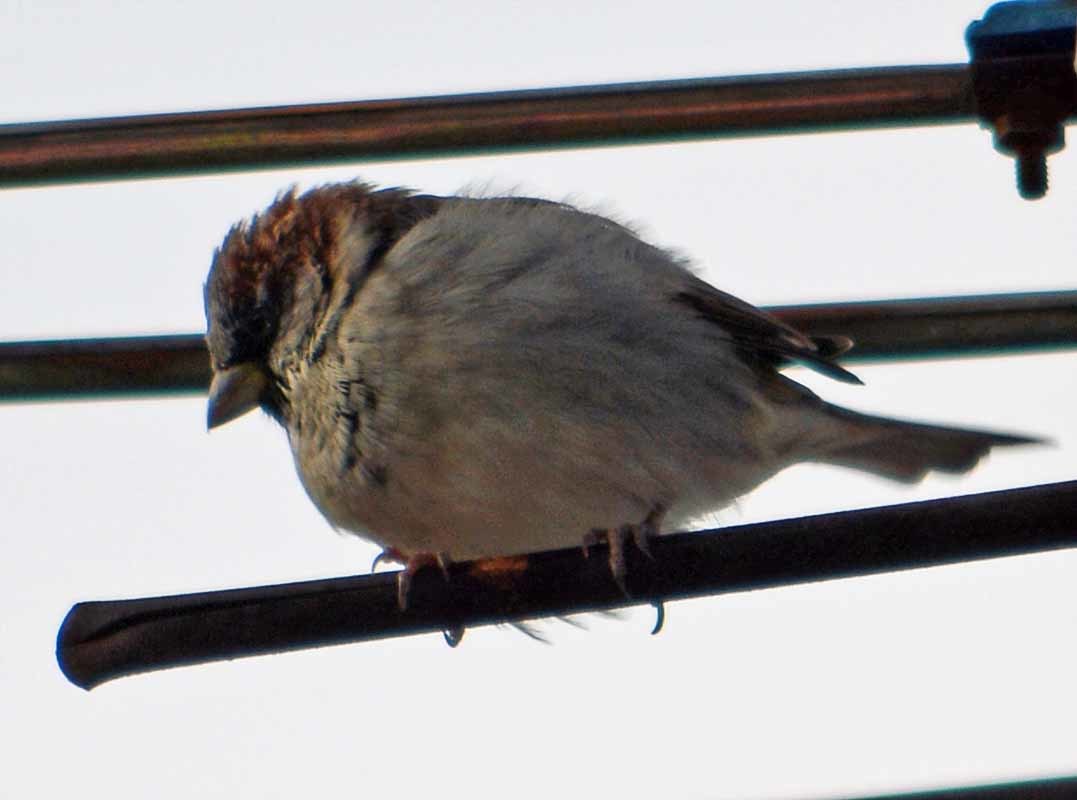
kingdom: Animalia
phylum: Chordata
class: Aves
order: Passeriformes
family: Passeridae
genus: Passer
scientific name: Passer domesticus
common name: House sparrow
